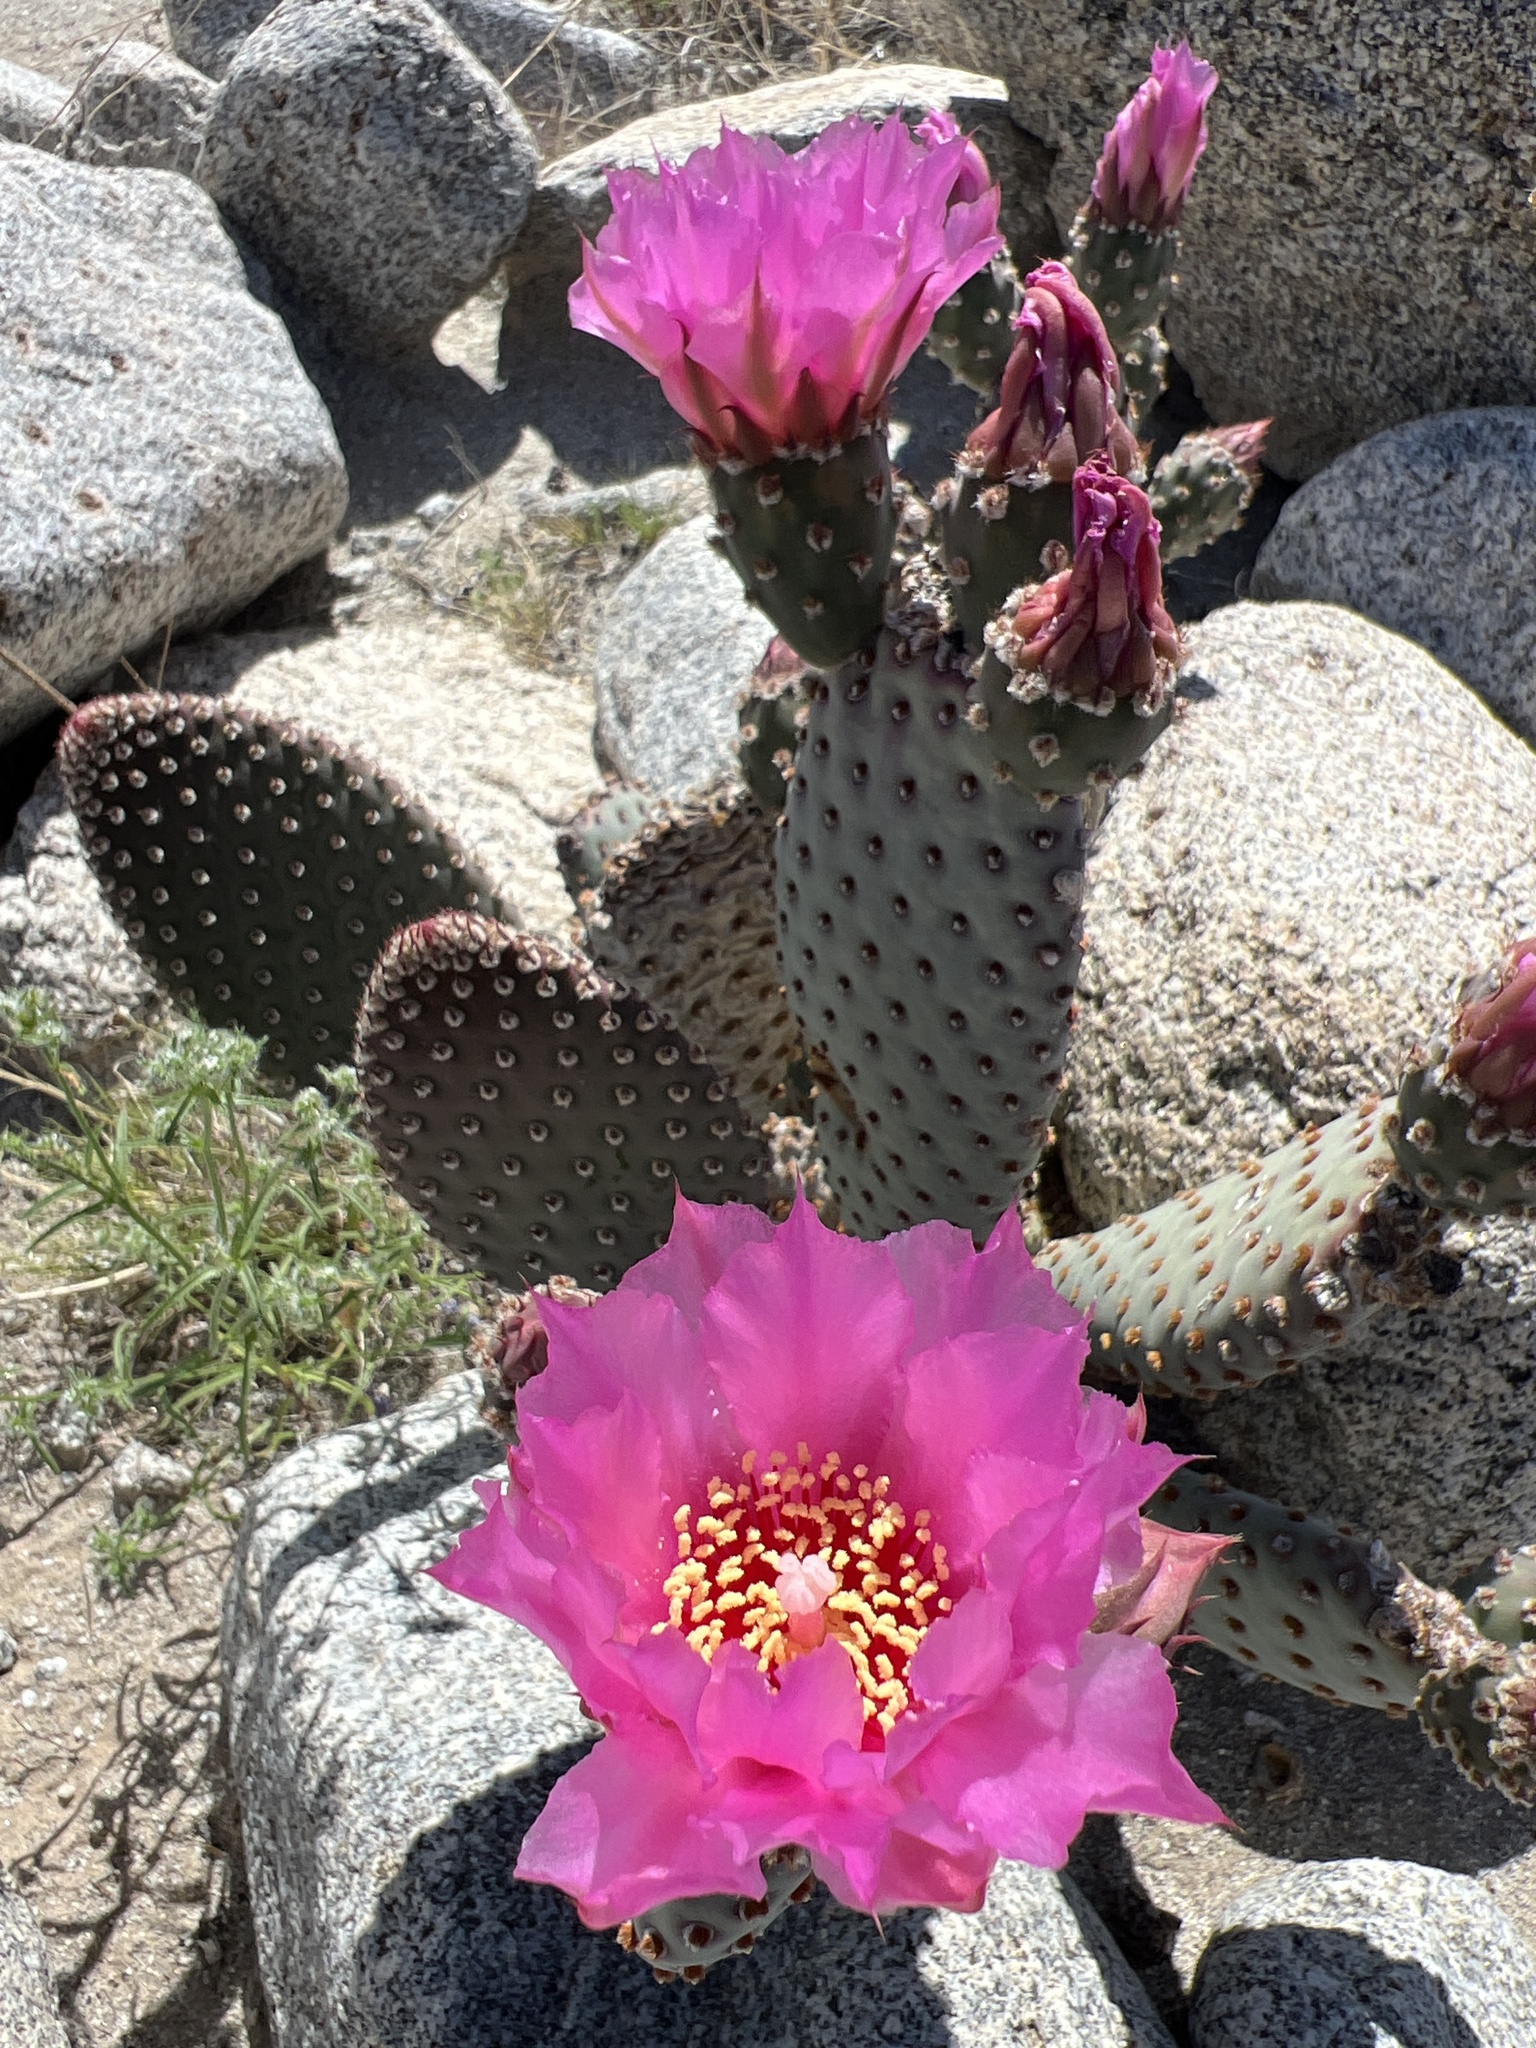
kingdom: Plantae
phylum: Tracheophyta
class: Magnoliopsida
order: Caryophyllales
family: Cactaceae
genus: Opuntia
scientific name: Opuntia basilaris
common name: Beavertail prickly-pear
